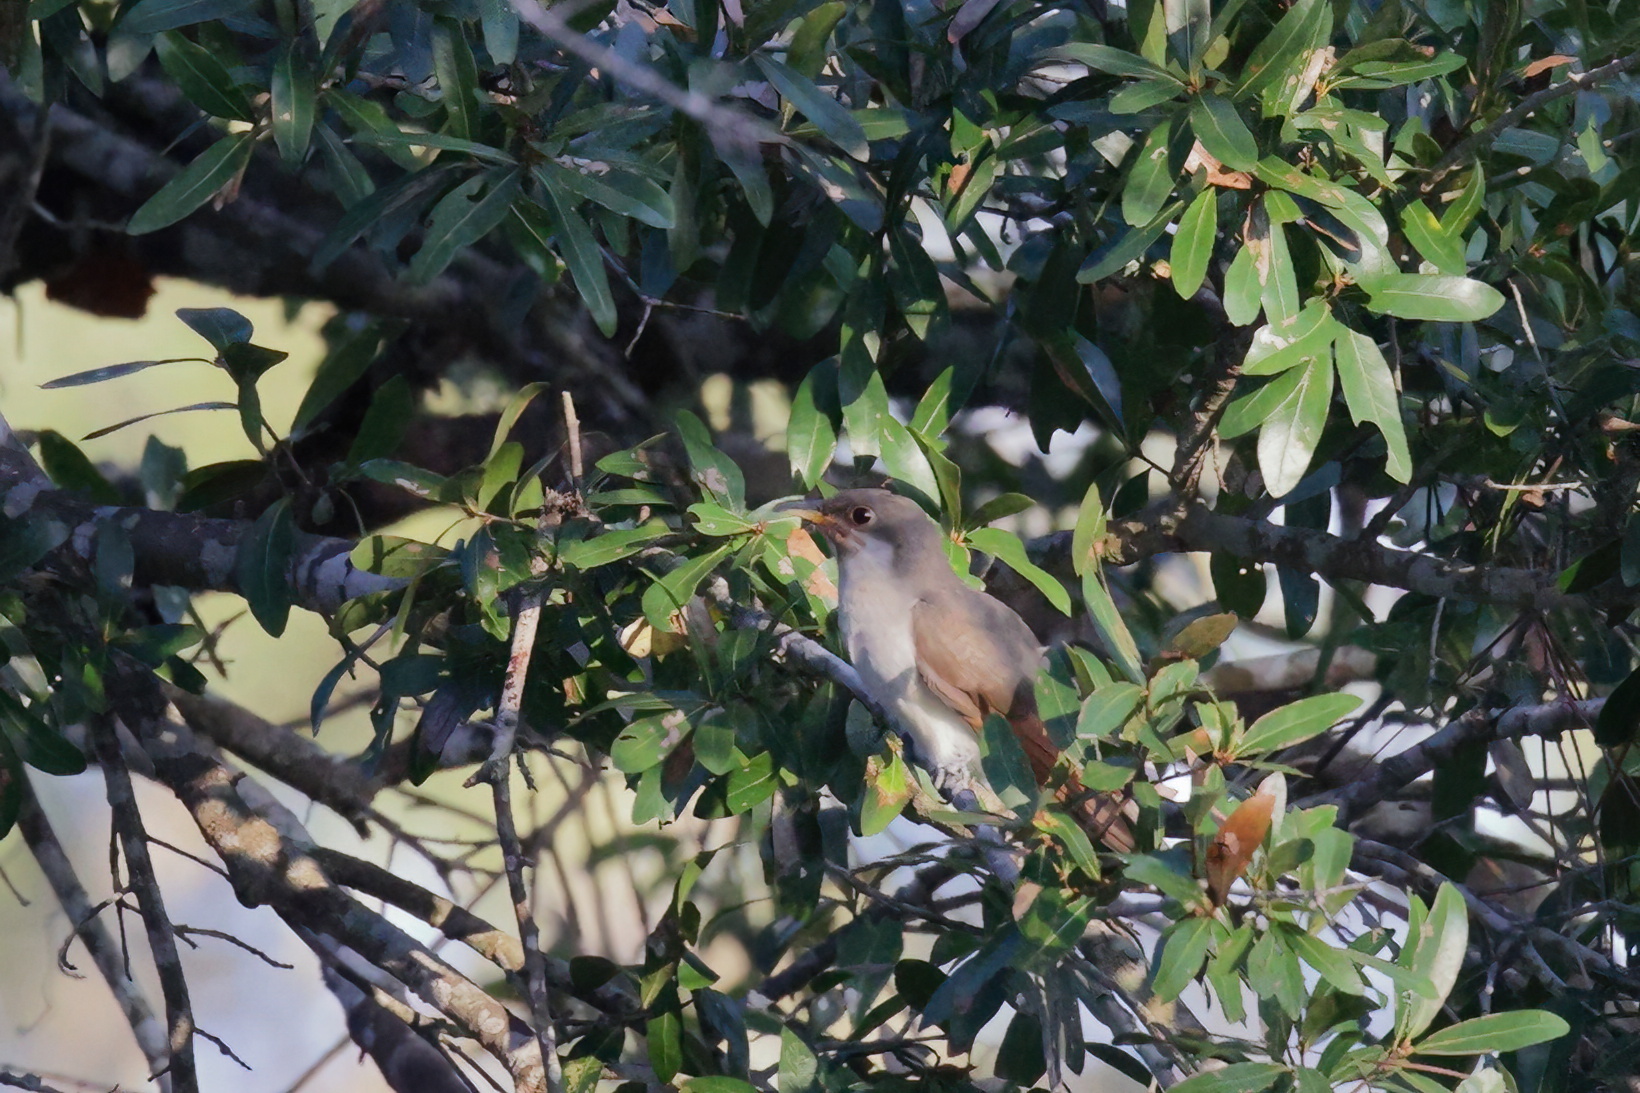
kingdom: Animalia
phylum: Chordata
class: Aves
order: Cuculiformes
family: Cuculidae
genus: Coccyzus
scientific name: Coccyzus americanus
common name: Yellow-billed cuckoo
